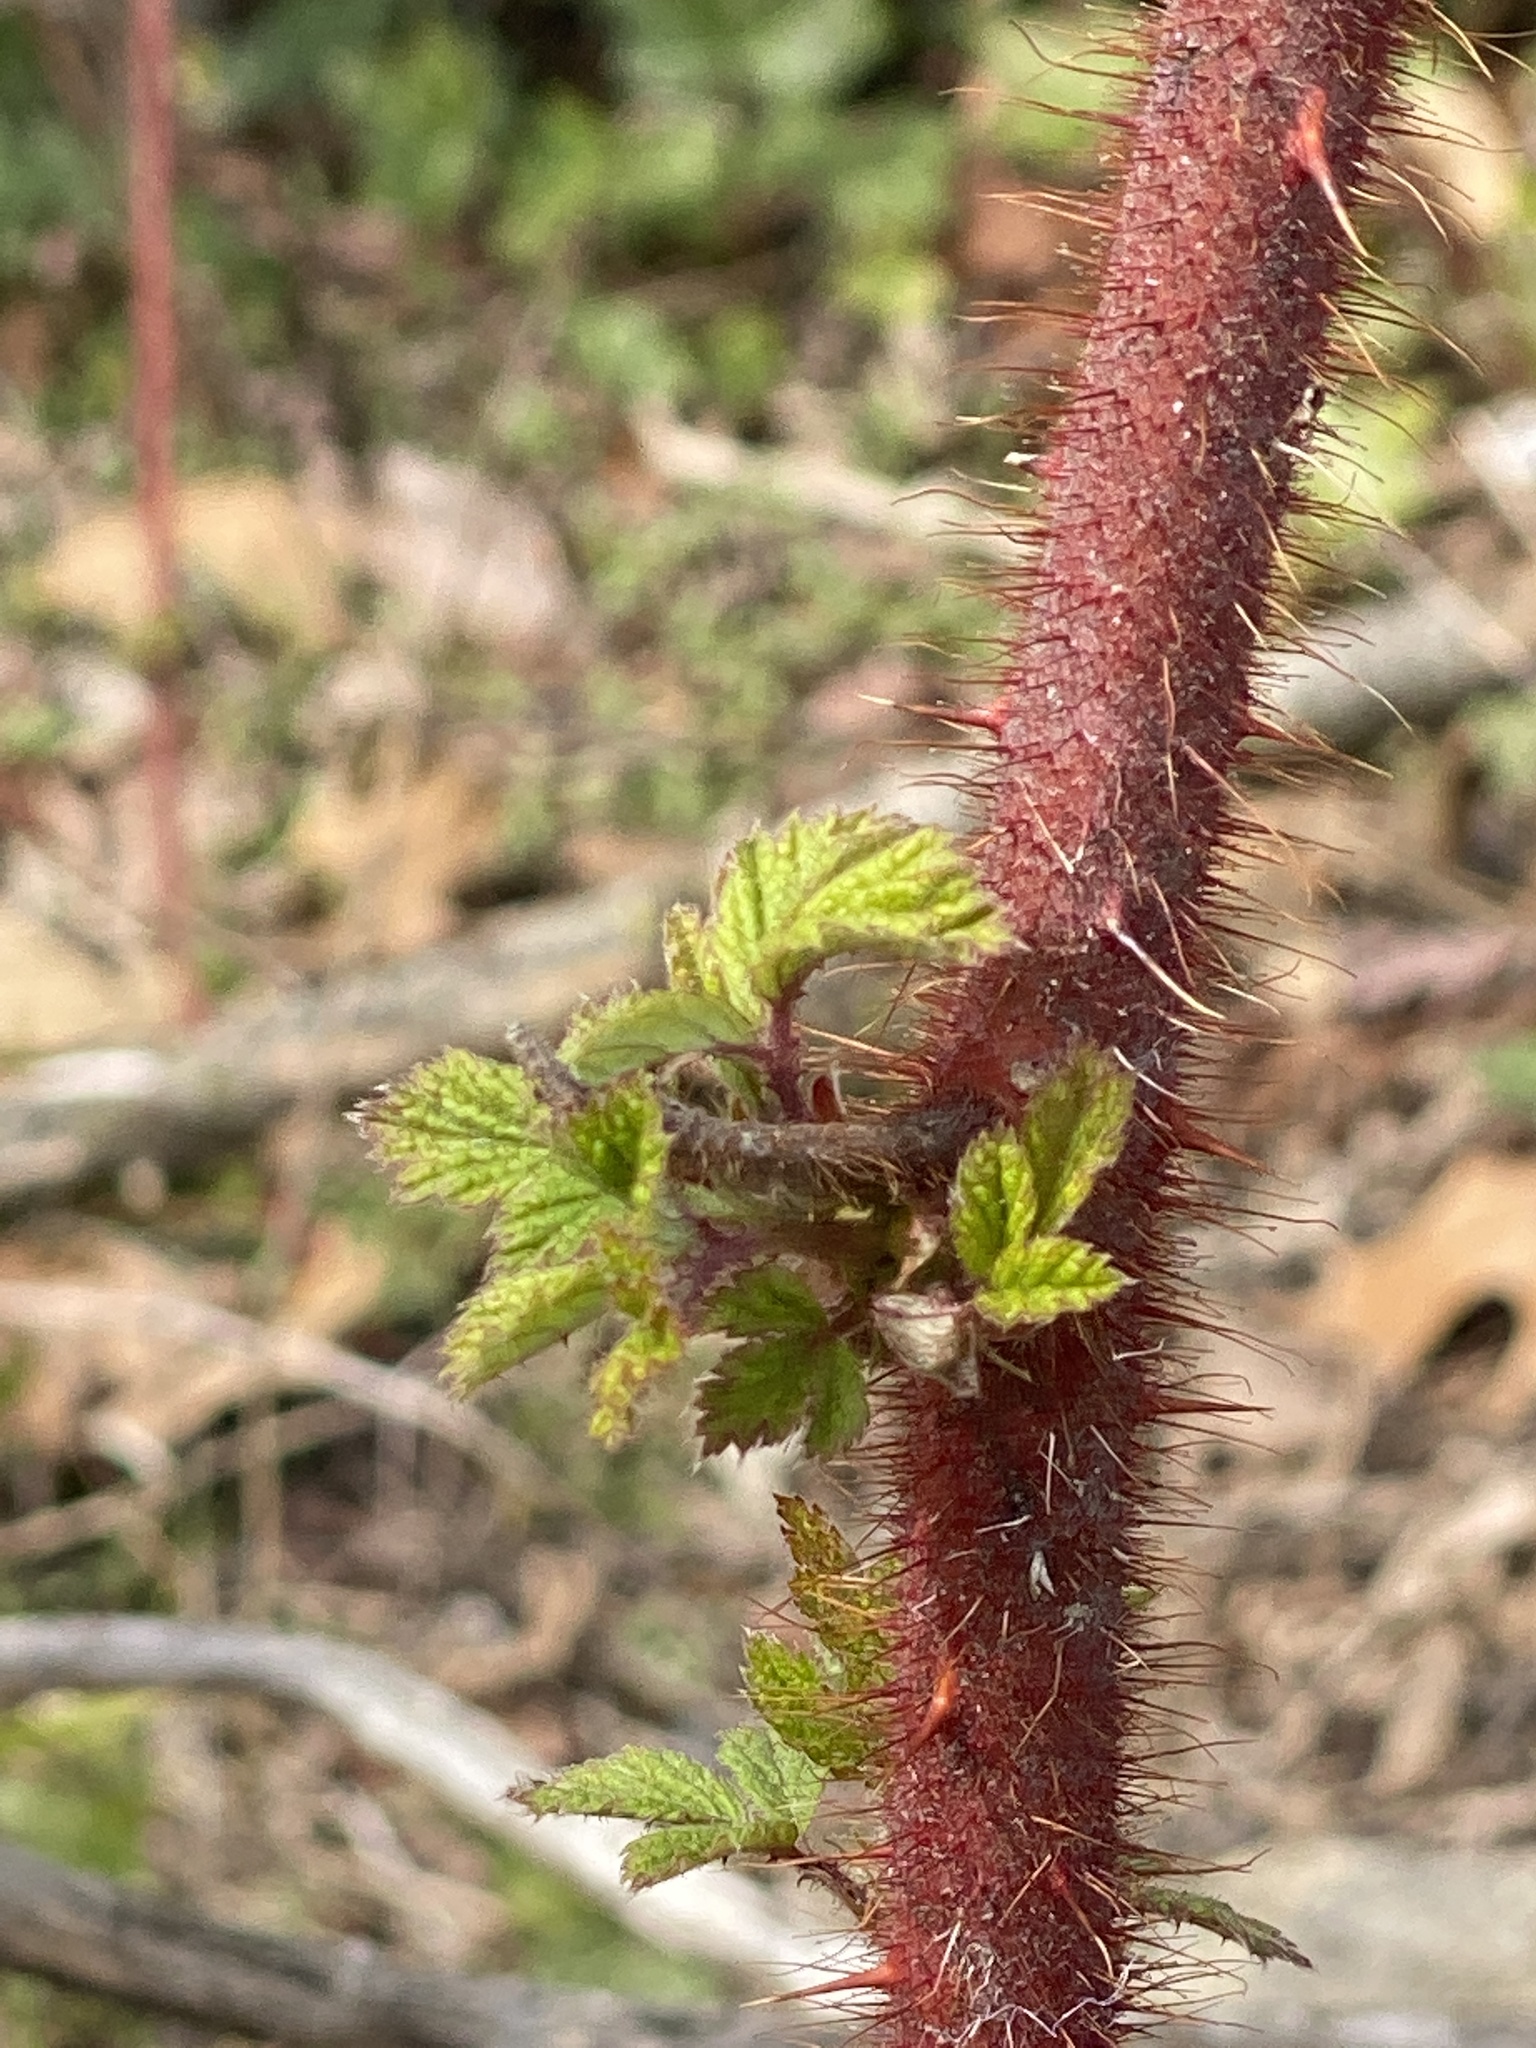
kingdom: Plantae
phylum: Tracheophyta
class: Magnoliopsida
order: Rosales
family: Rosaceae
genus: Rubus
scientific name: Rubus phoenicolasius
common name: Japanese wineberry
